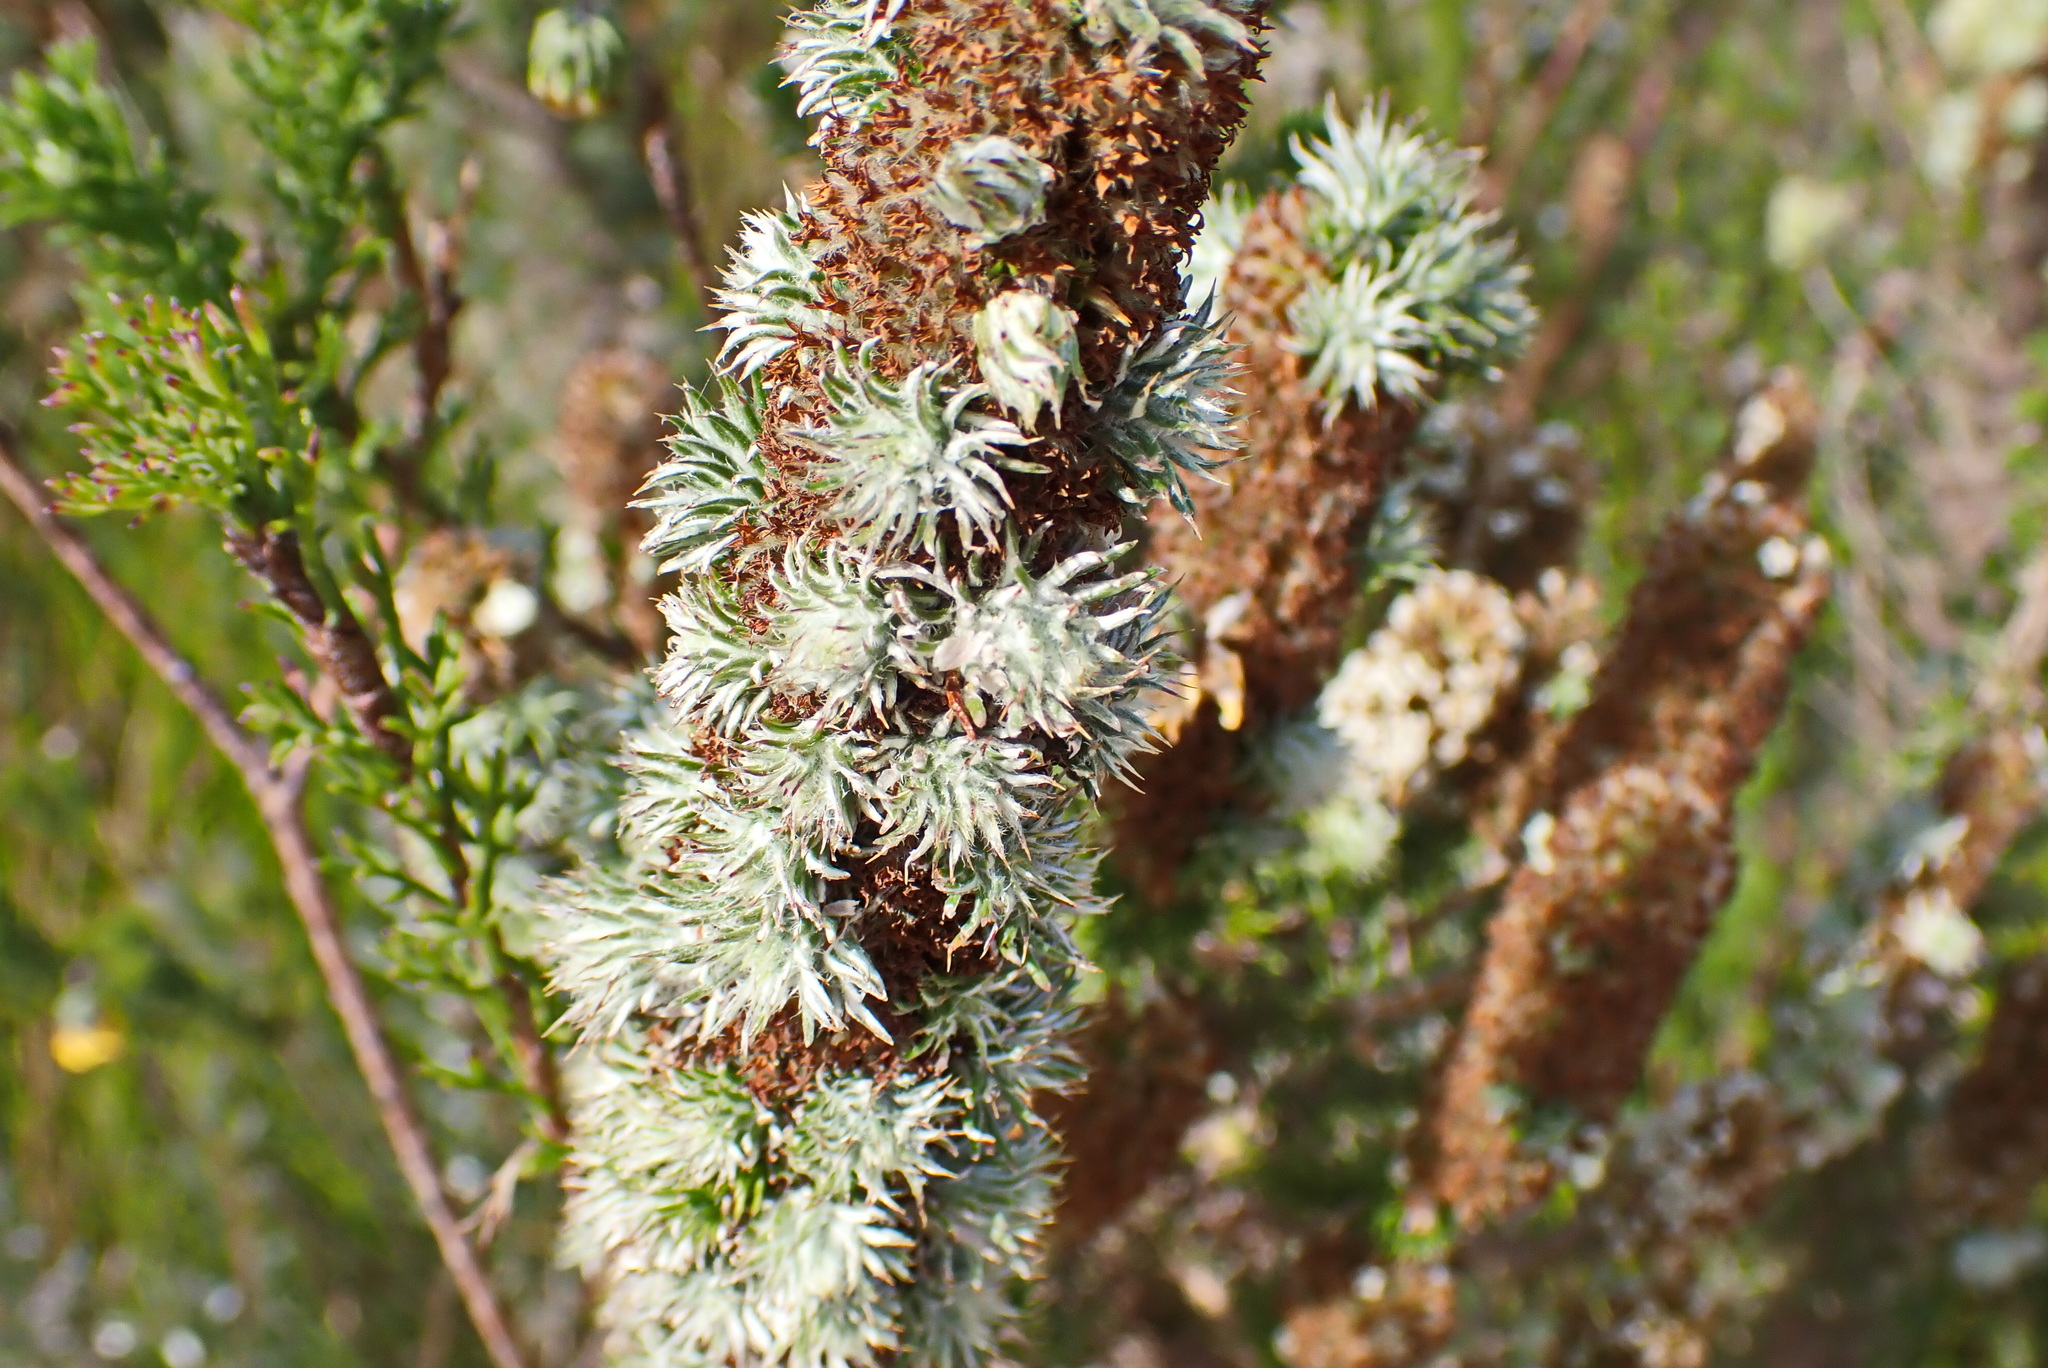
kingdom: Plantae
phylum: Tracheophyta
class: Magnoliopsida
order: Asterales
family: Asteraceae
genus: Stoebe
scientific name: Stoebe alopecuroides
